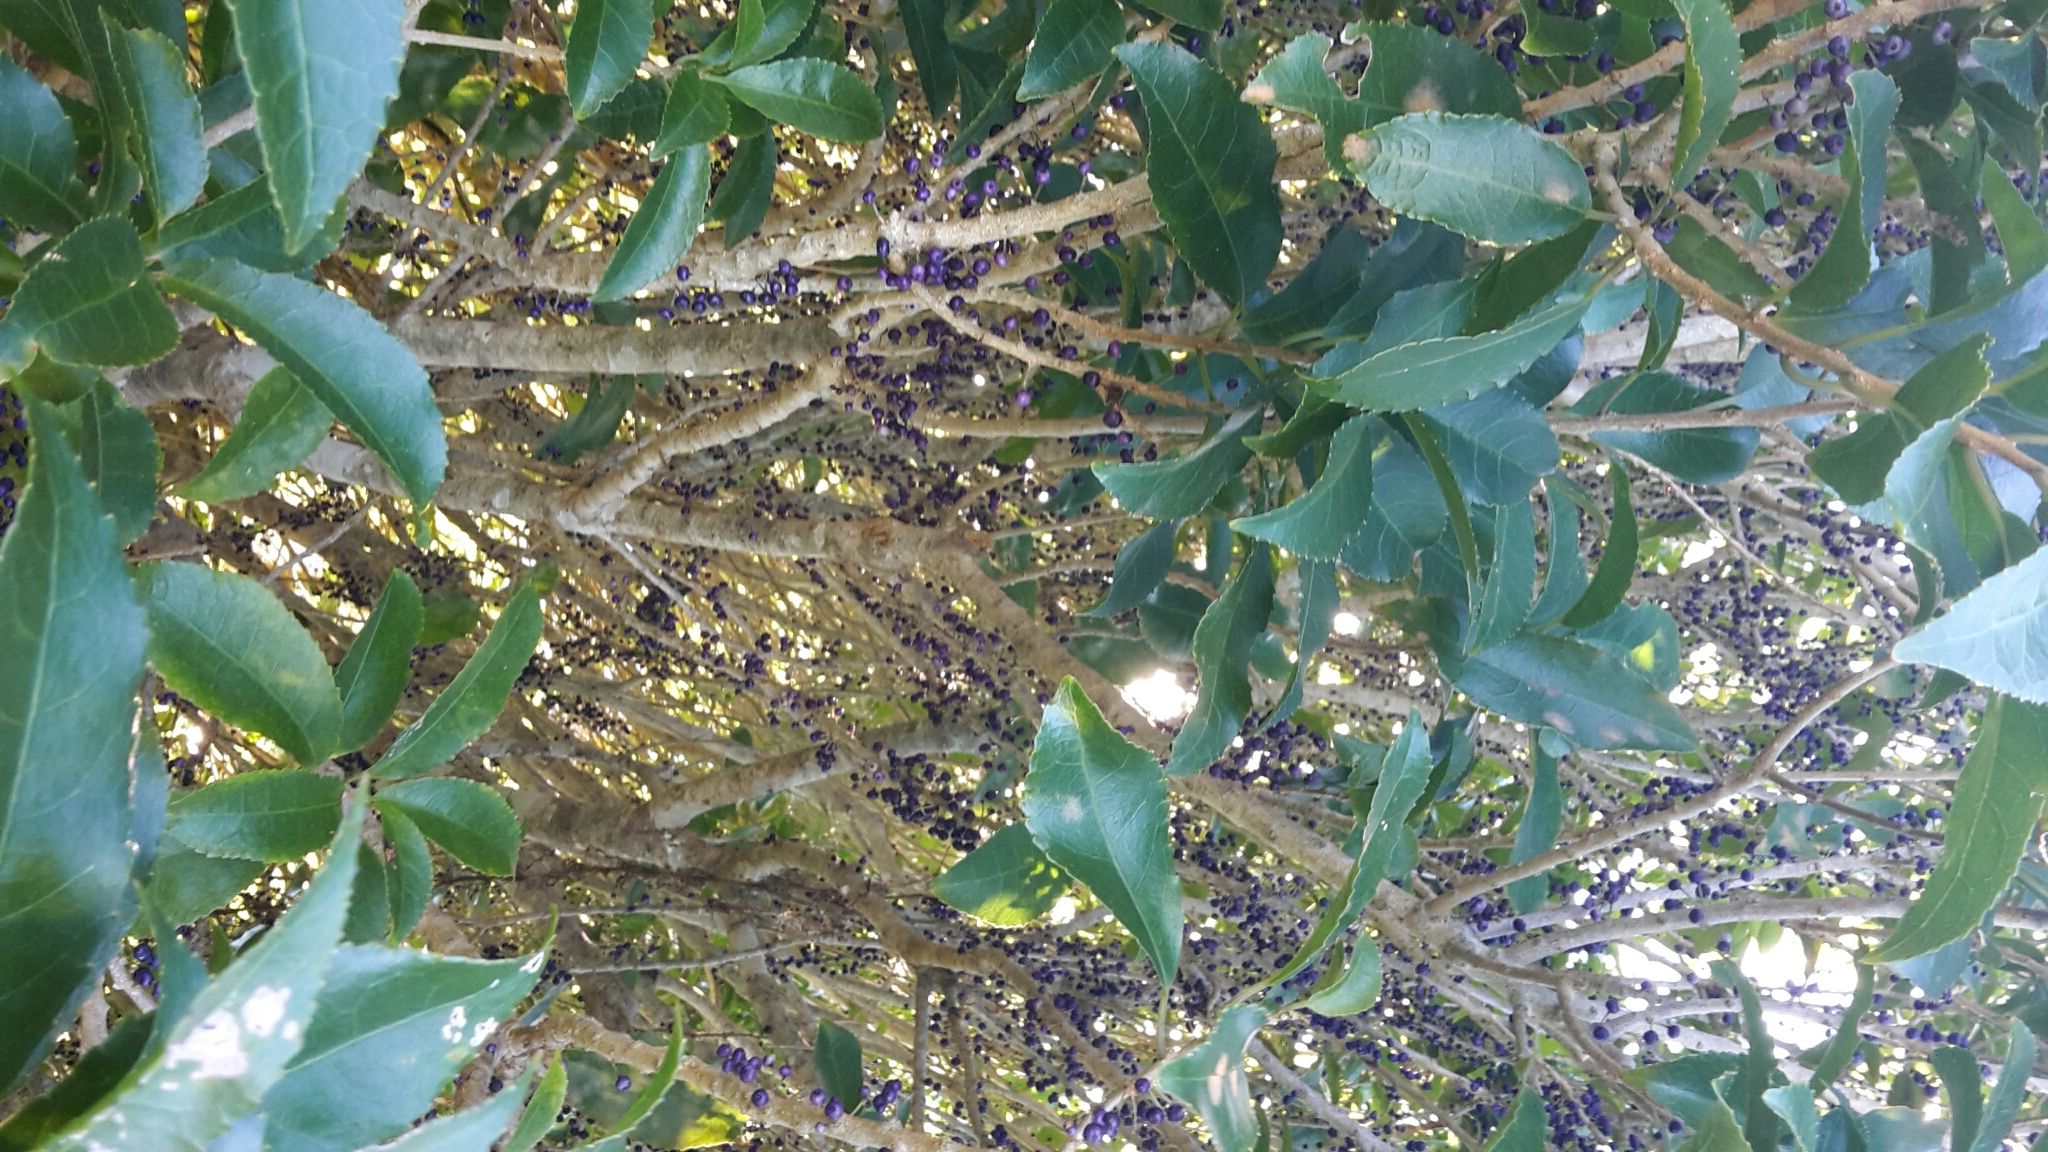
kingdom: Plantae
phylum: Tracheophyta
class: Magnoliopsida
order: Malpighiales
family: Violaceae
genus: Melicytus
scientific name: Melicytus ramiflorus
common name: Mahoe
